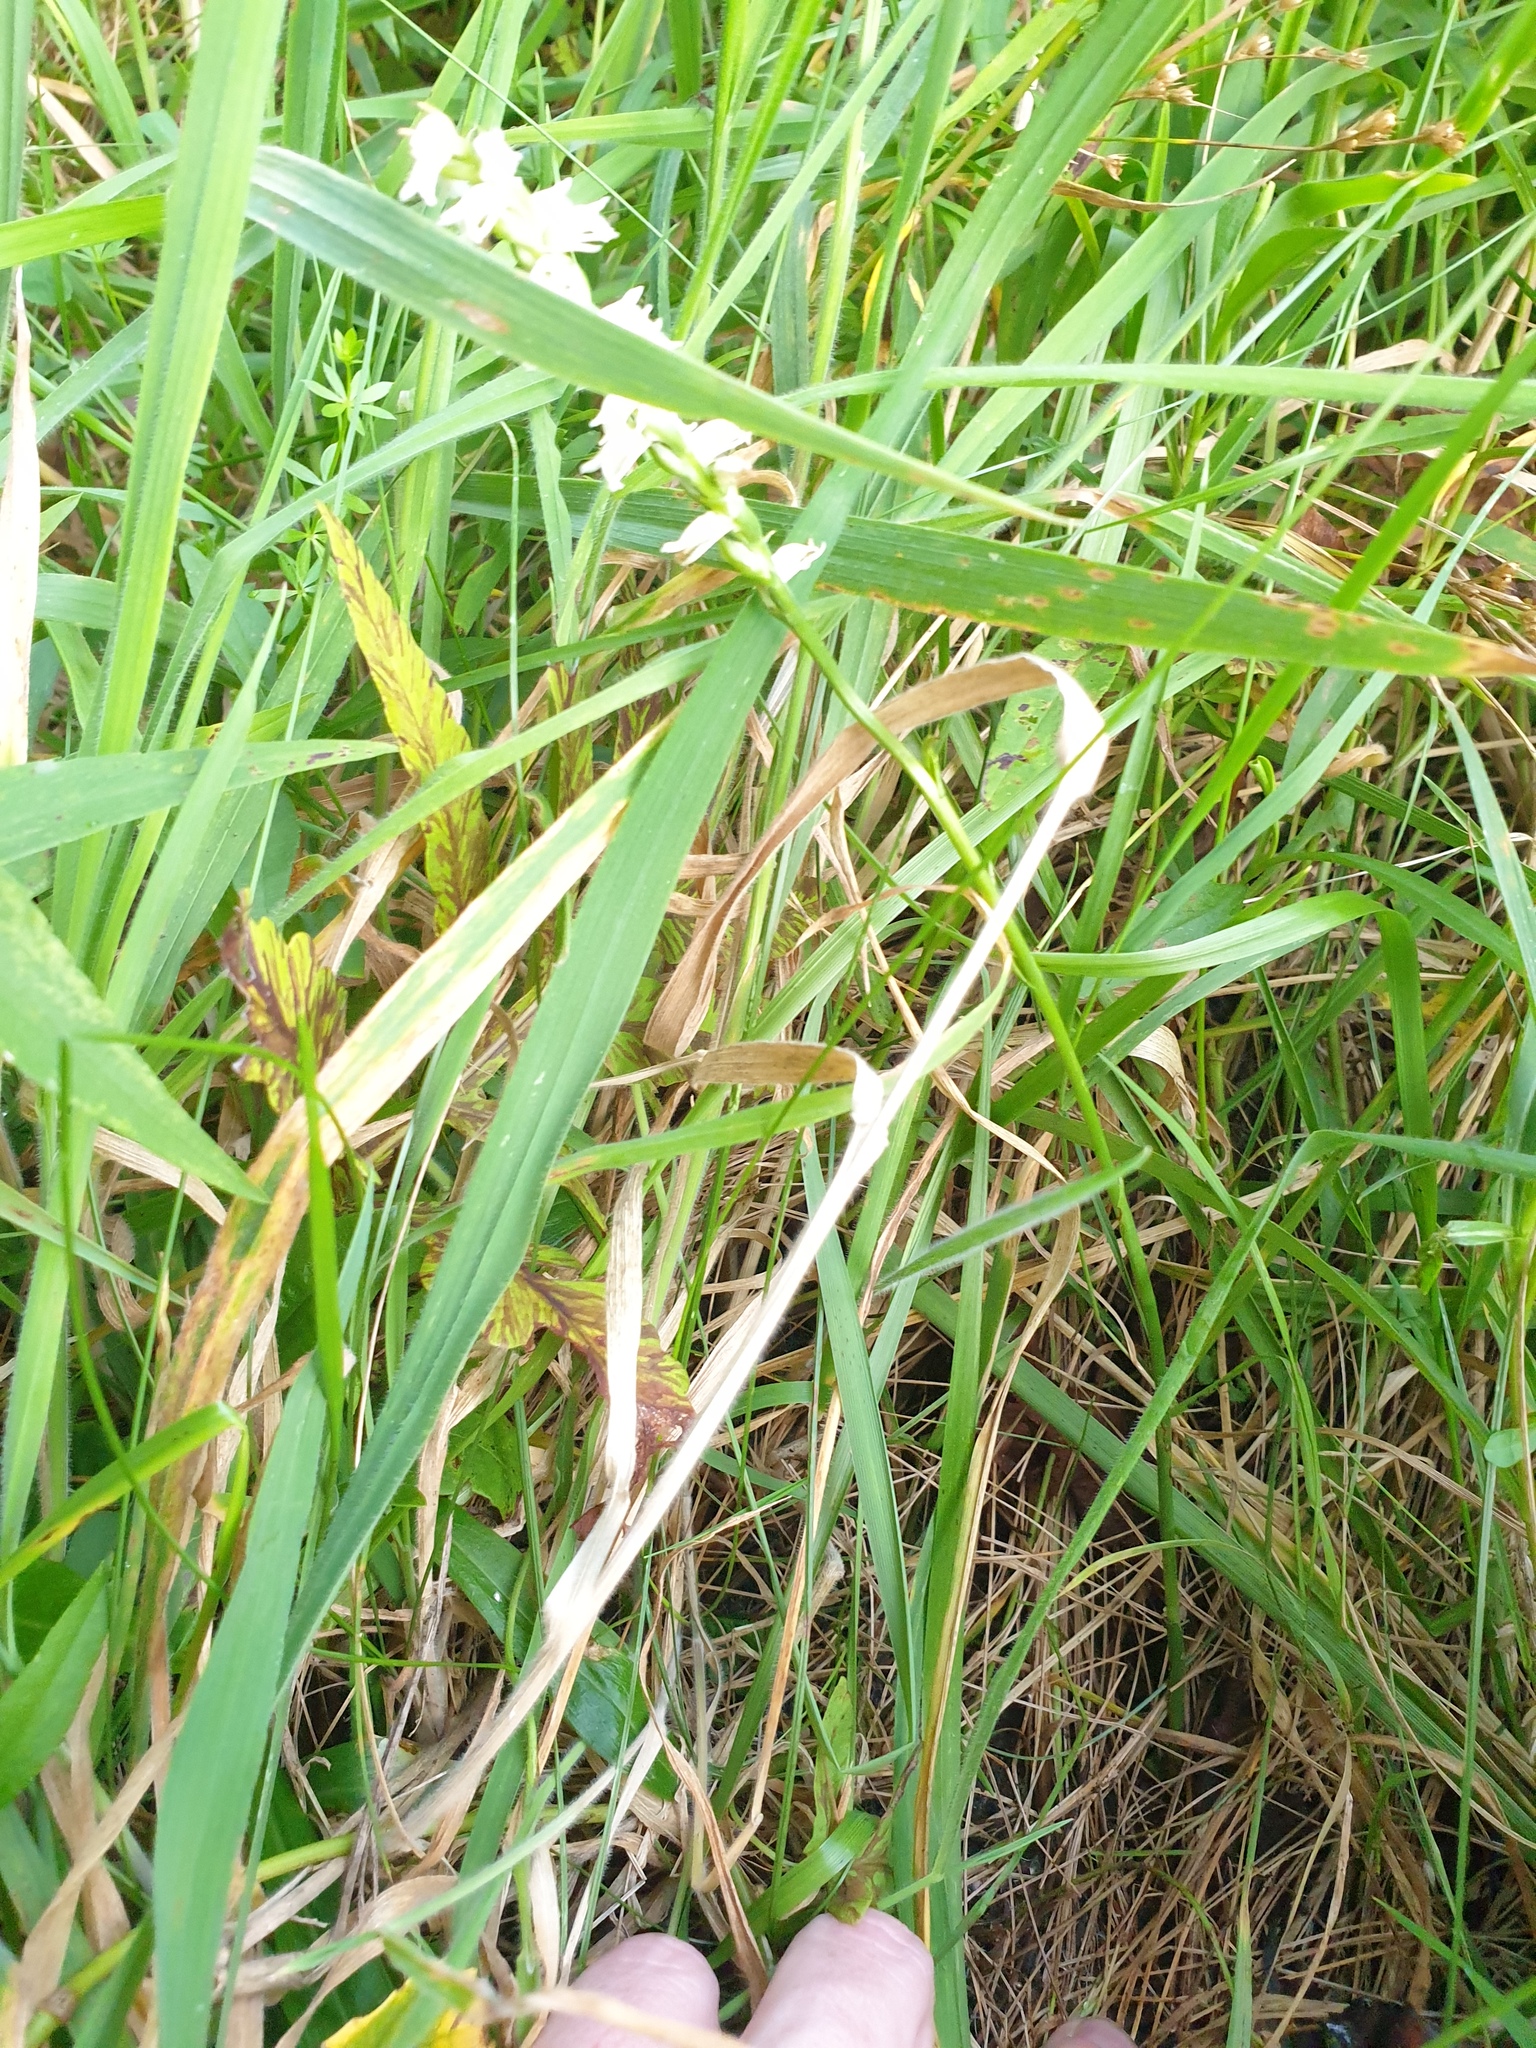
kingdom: Plantae
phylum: Tracheophyta
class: Liliopsida
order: Asparagales
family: Orchidaceae
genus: Spiranthes
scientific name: Spiranthes vernalis
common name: Spring ladies'-tresses
